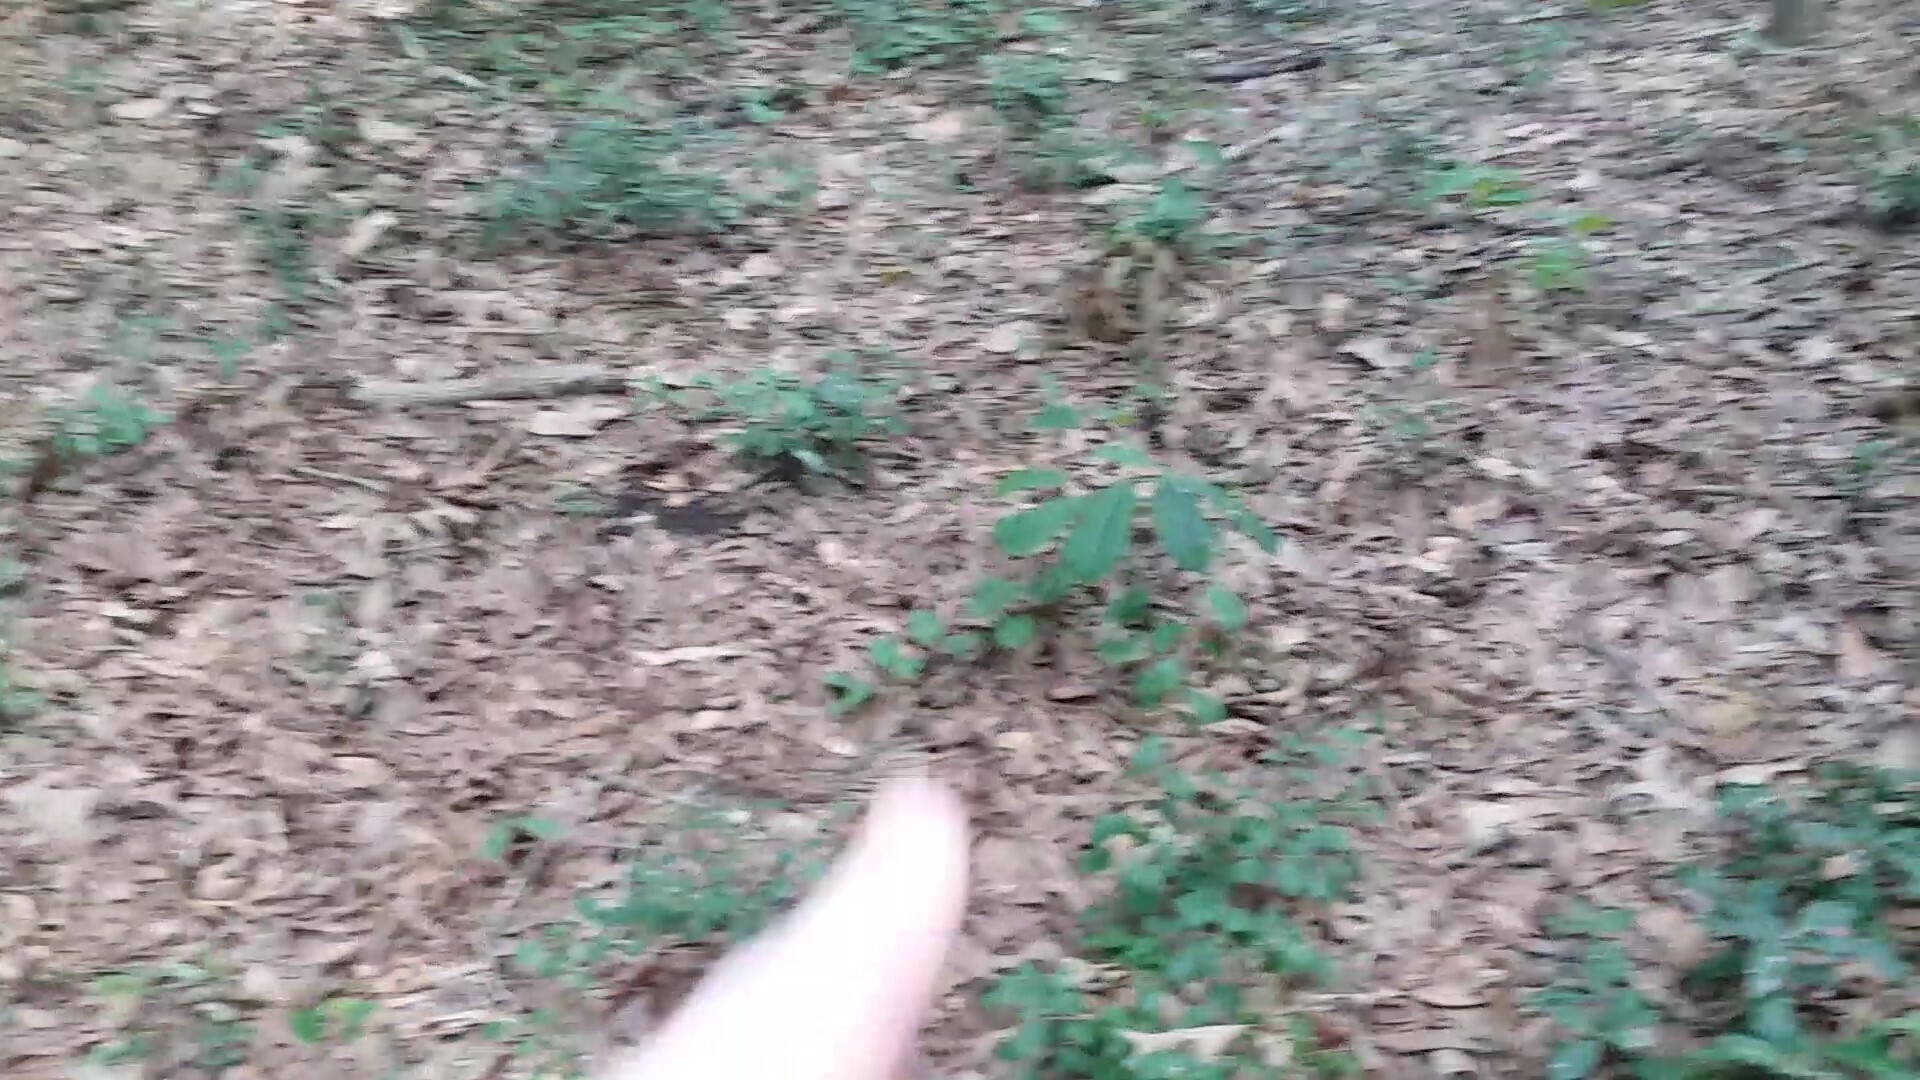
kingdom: Plantae
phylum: Tracheophyta
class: Magnoliopsida
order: Magnoliales
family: Annonaceae
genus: Asimina
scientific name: Asimina parviflora
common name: Dwarf pawpaw
